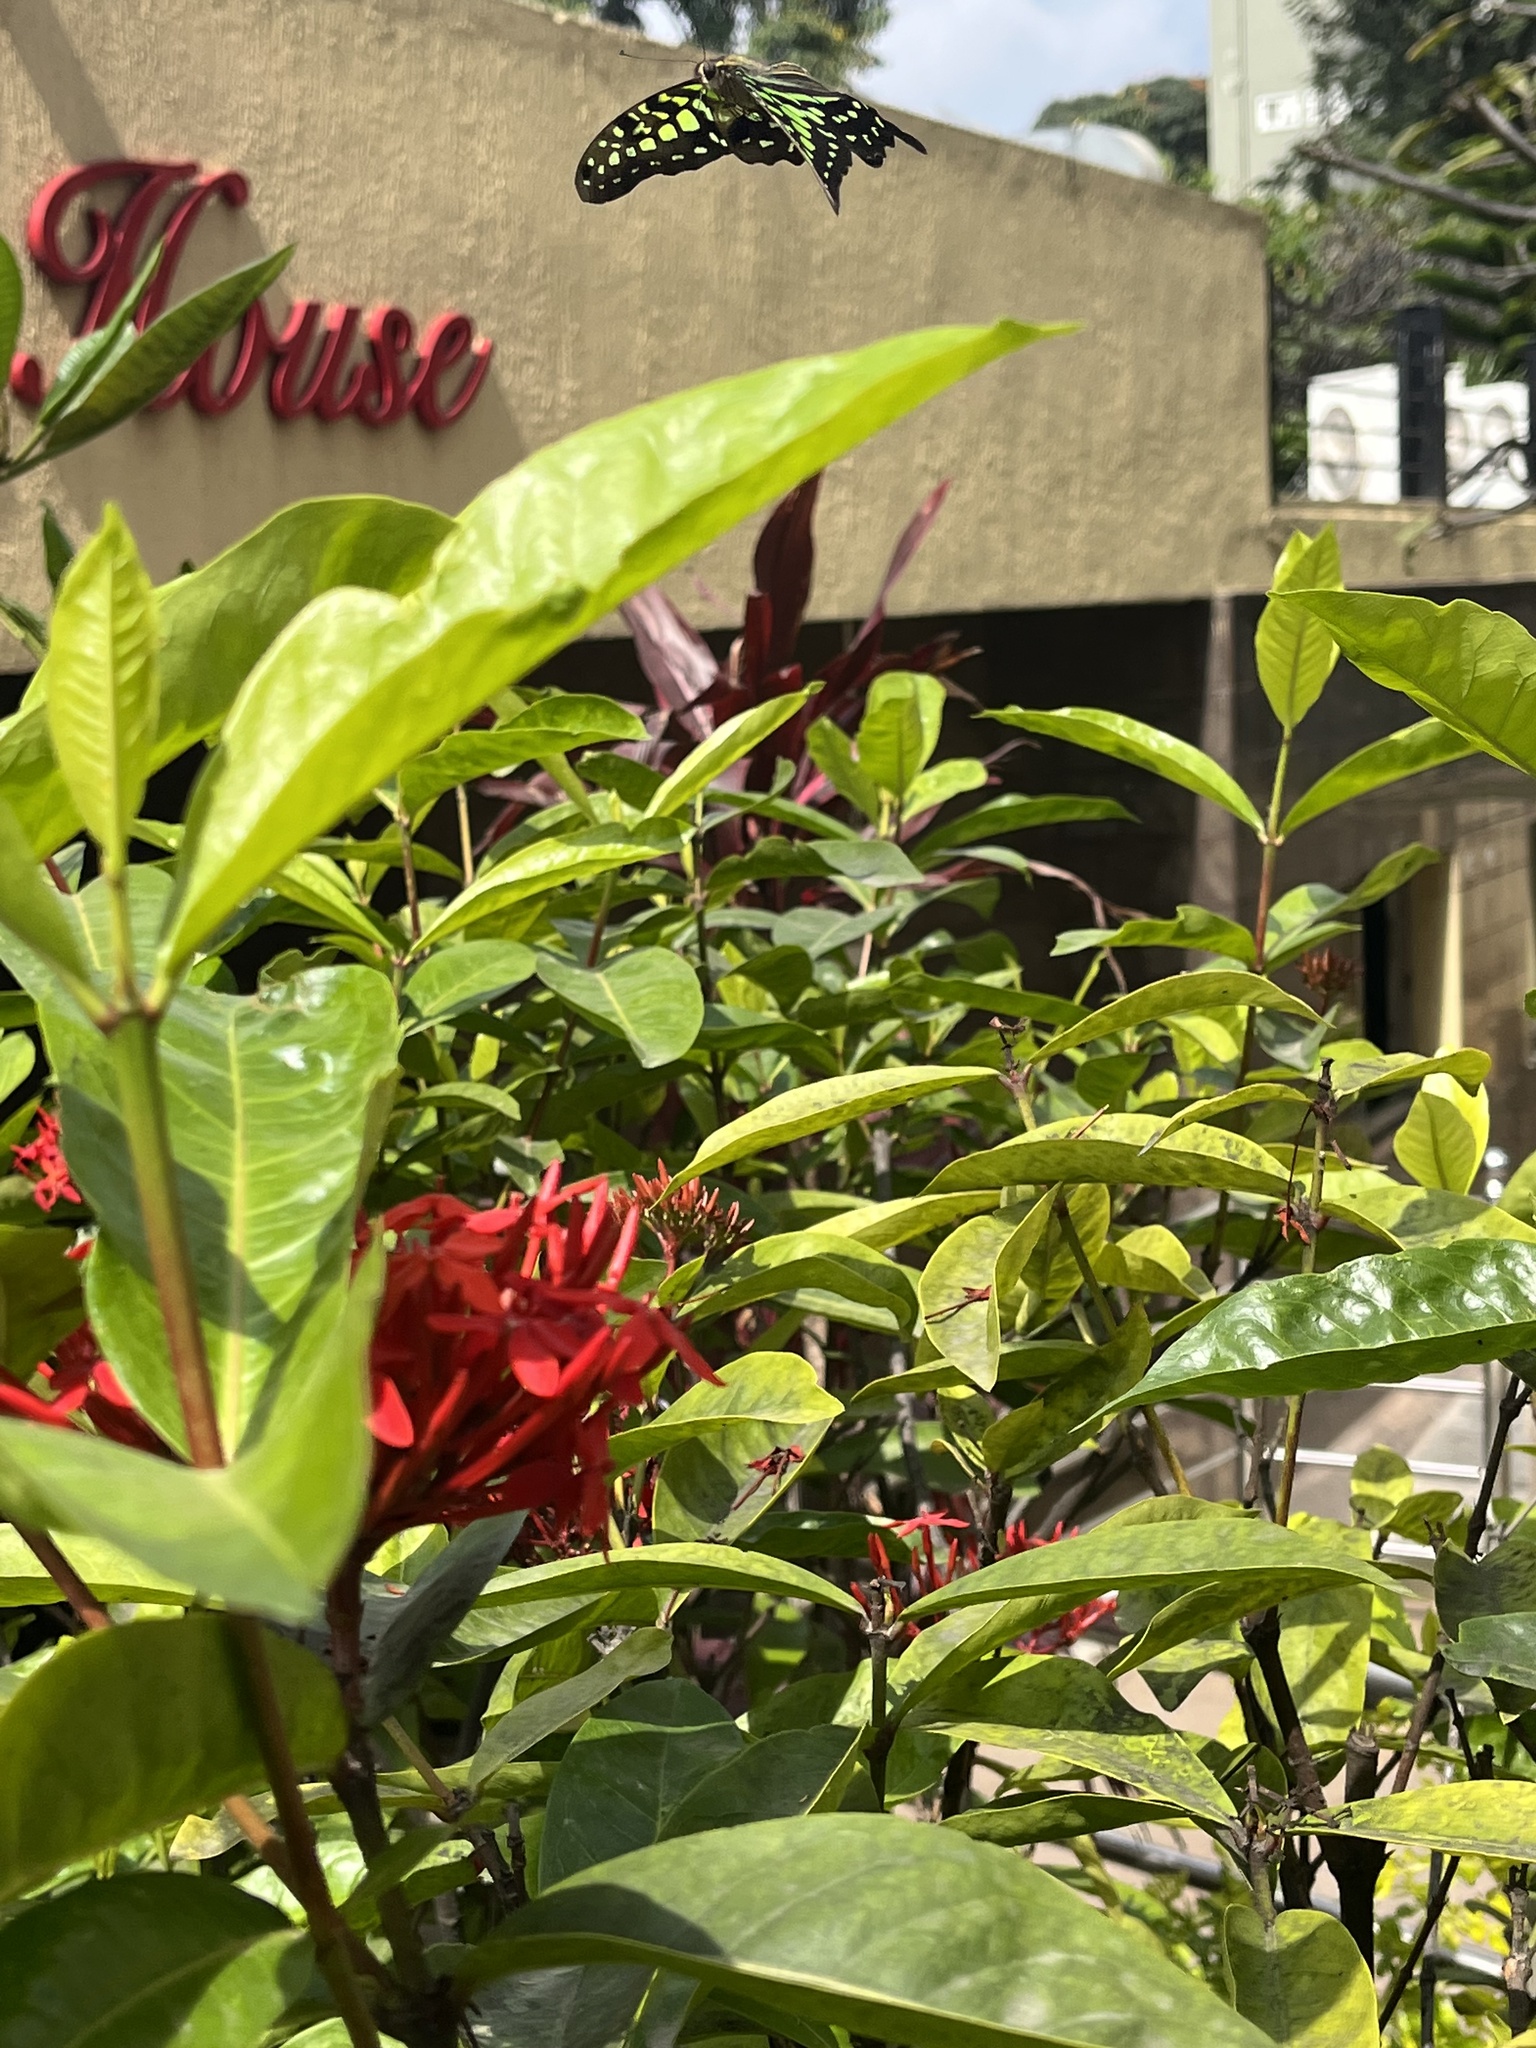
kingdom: Animalia
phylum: Arthropoda
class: Insecta
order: Lepidoptera
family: Papilionidae
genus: Graphium
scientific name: Graphium agamemnon
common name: Tailed jay
